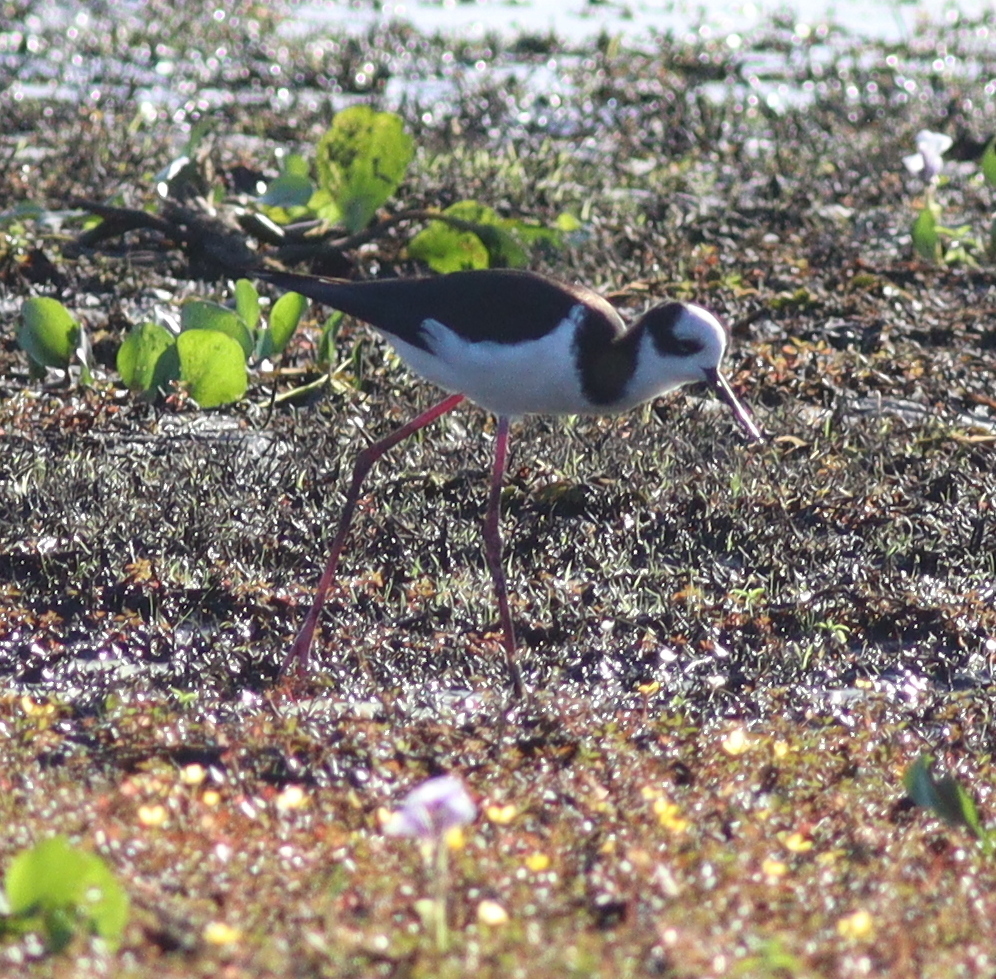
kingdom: Animalia
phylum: Chordata
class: Aves
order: Charadriiformes
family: Recurvirostridae
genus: Himantopus
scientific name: Himantopus mexicanus
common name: Black-necked stilt
